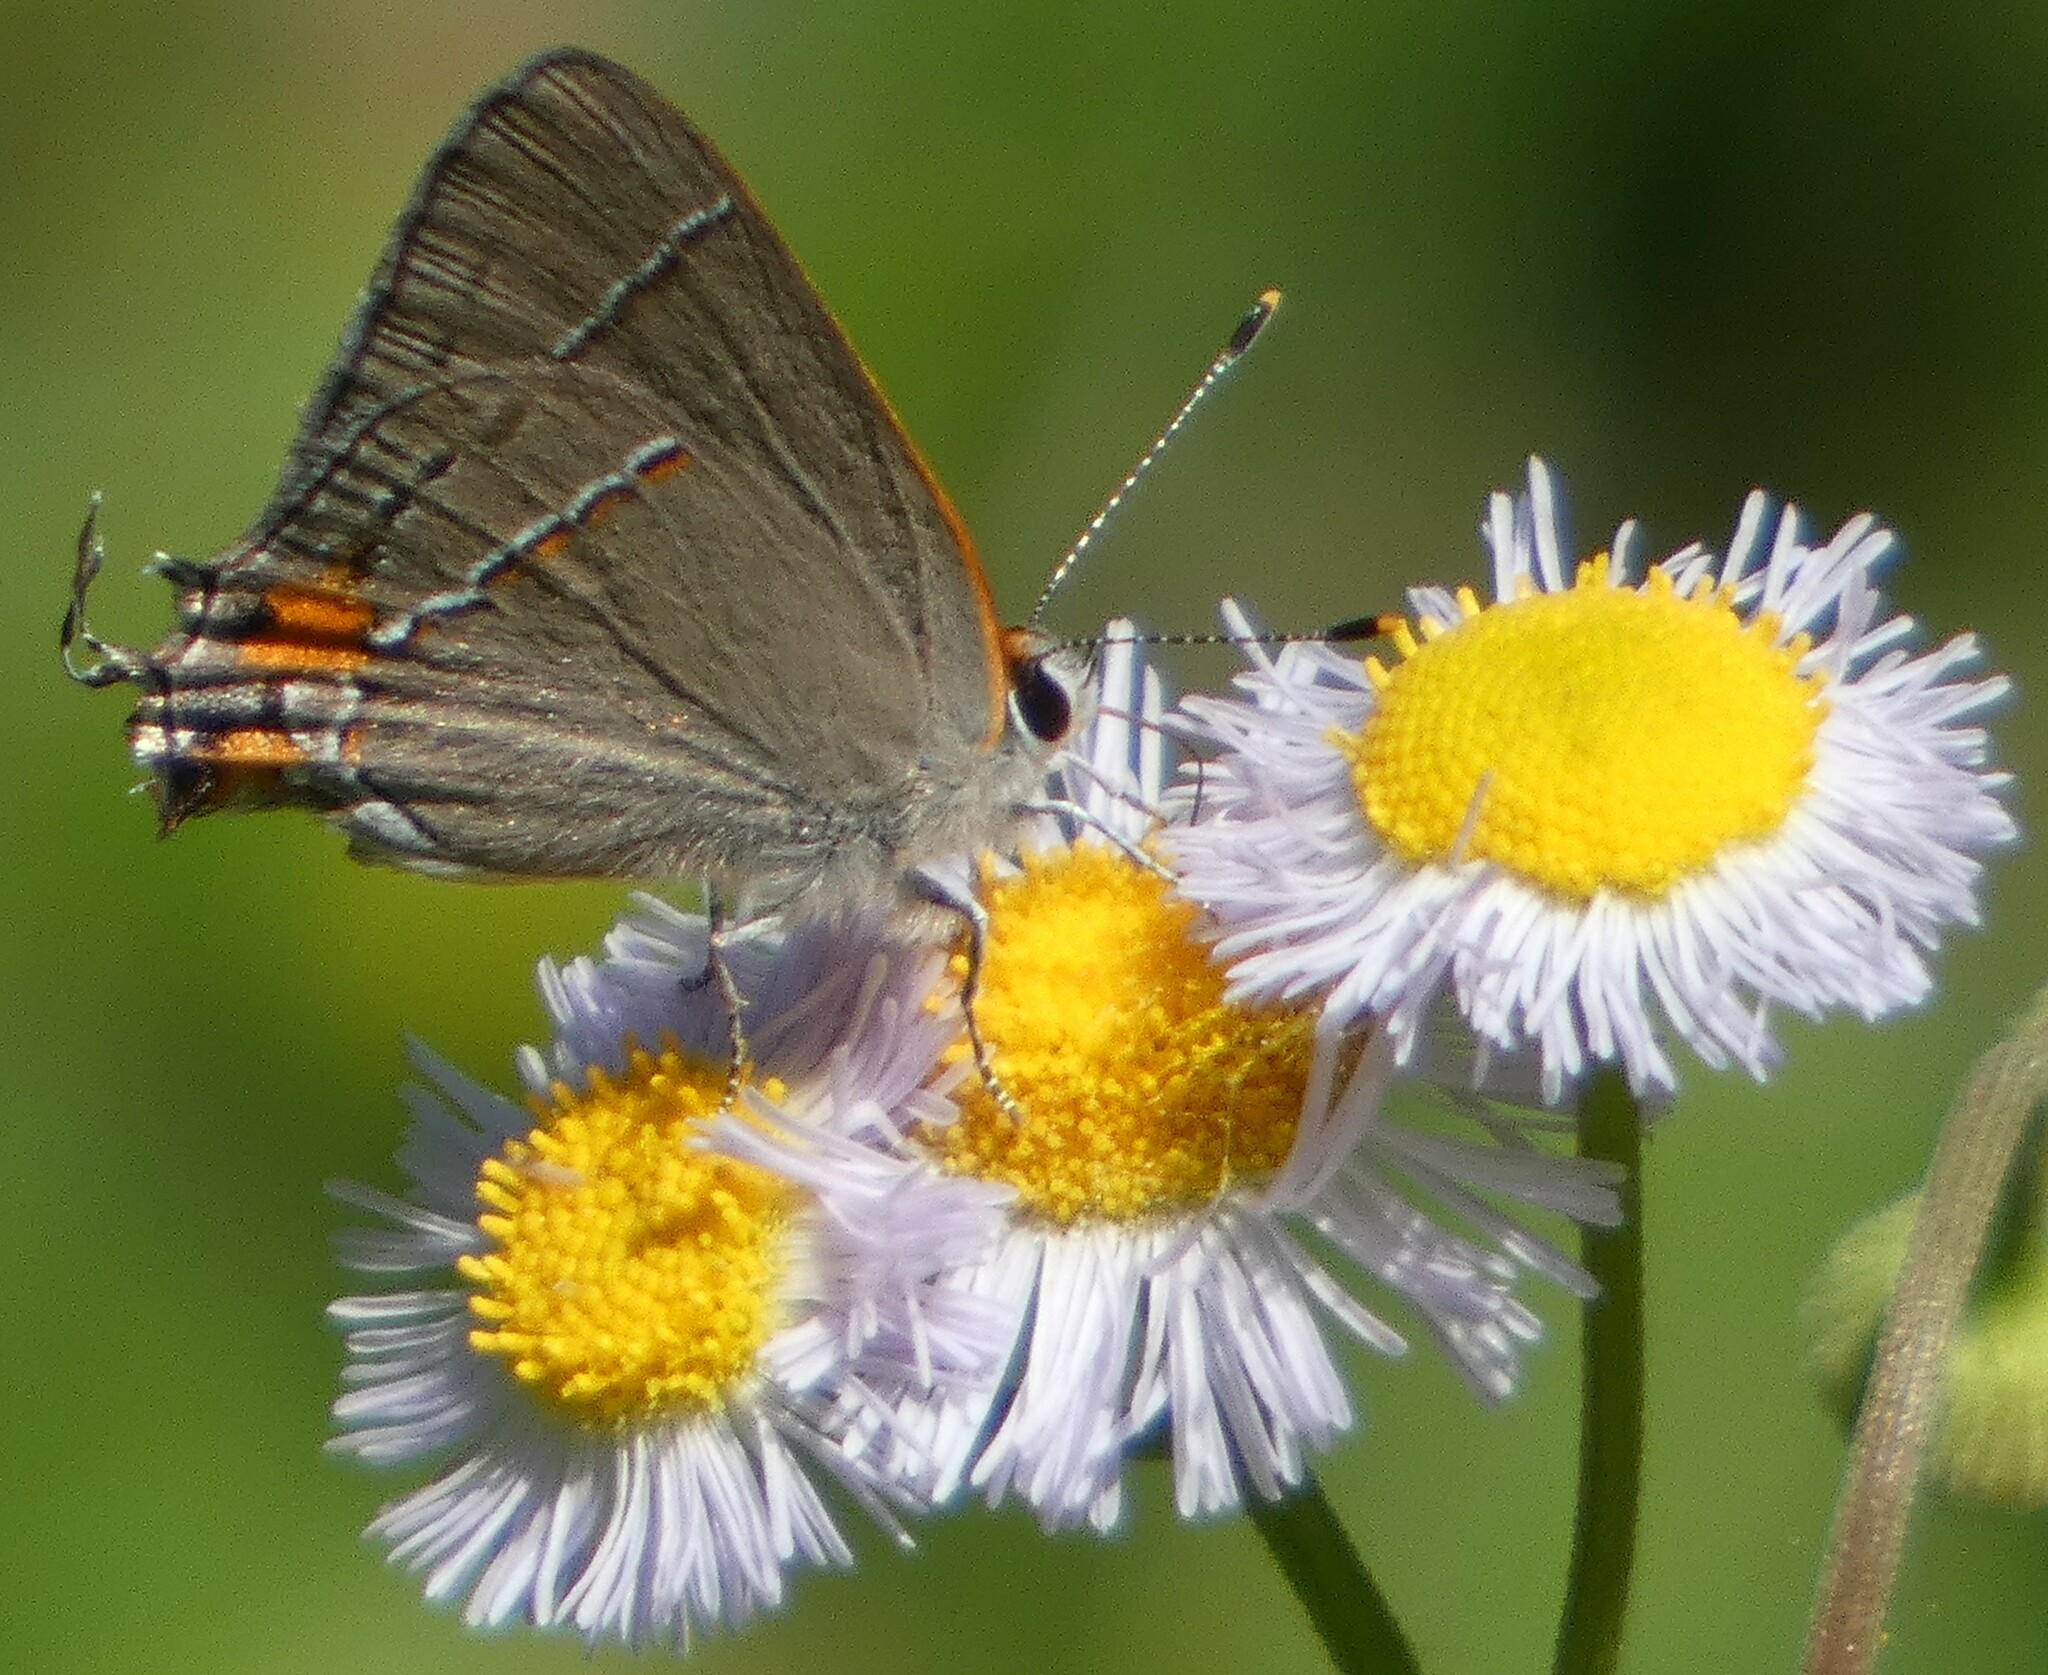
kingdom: Animalia
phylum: Arthropoda
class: Insecta
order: Lepidoptera
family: Lycaenidae
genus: Strymon
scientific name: Strymon melinus
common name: Gray hairstreak
